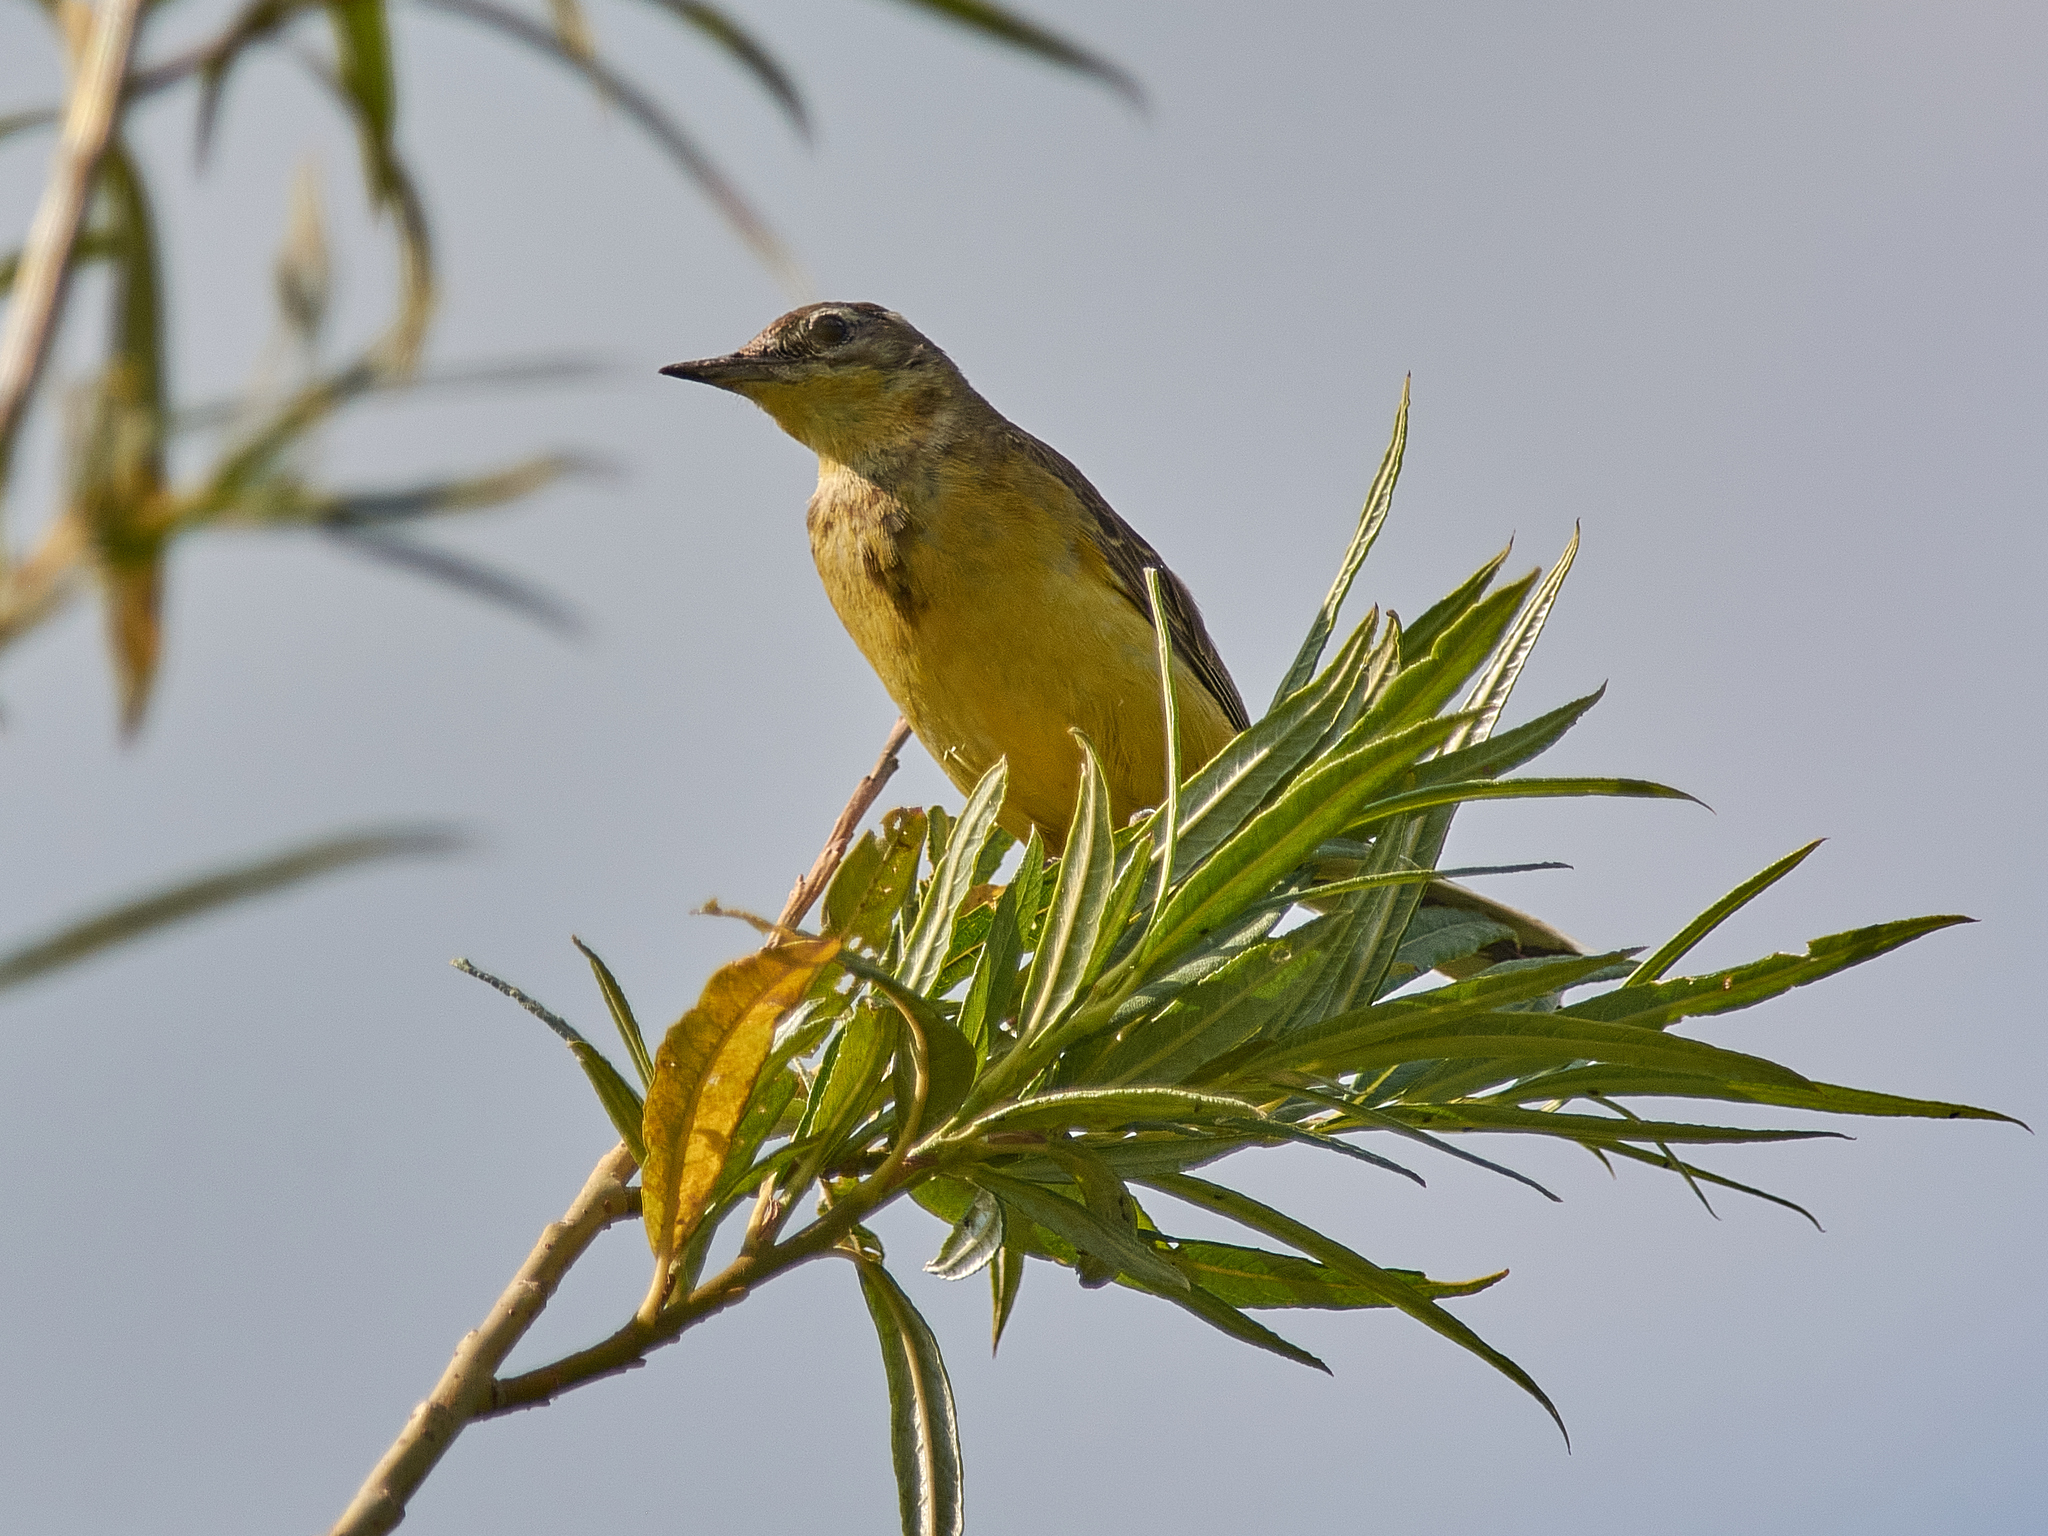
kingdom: Animalia
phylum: Chordata
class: Aves
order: Passeriformes
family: Motacillidae
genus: Motacilla
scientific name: Motacilla flava
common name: Western yellow wagtail
